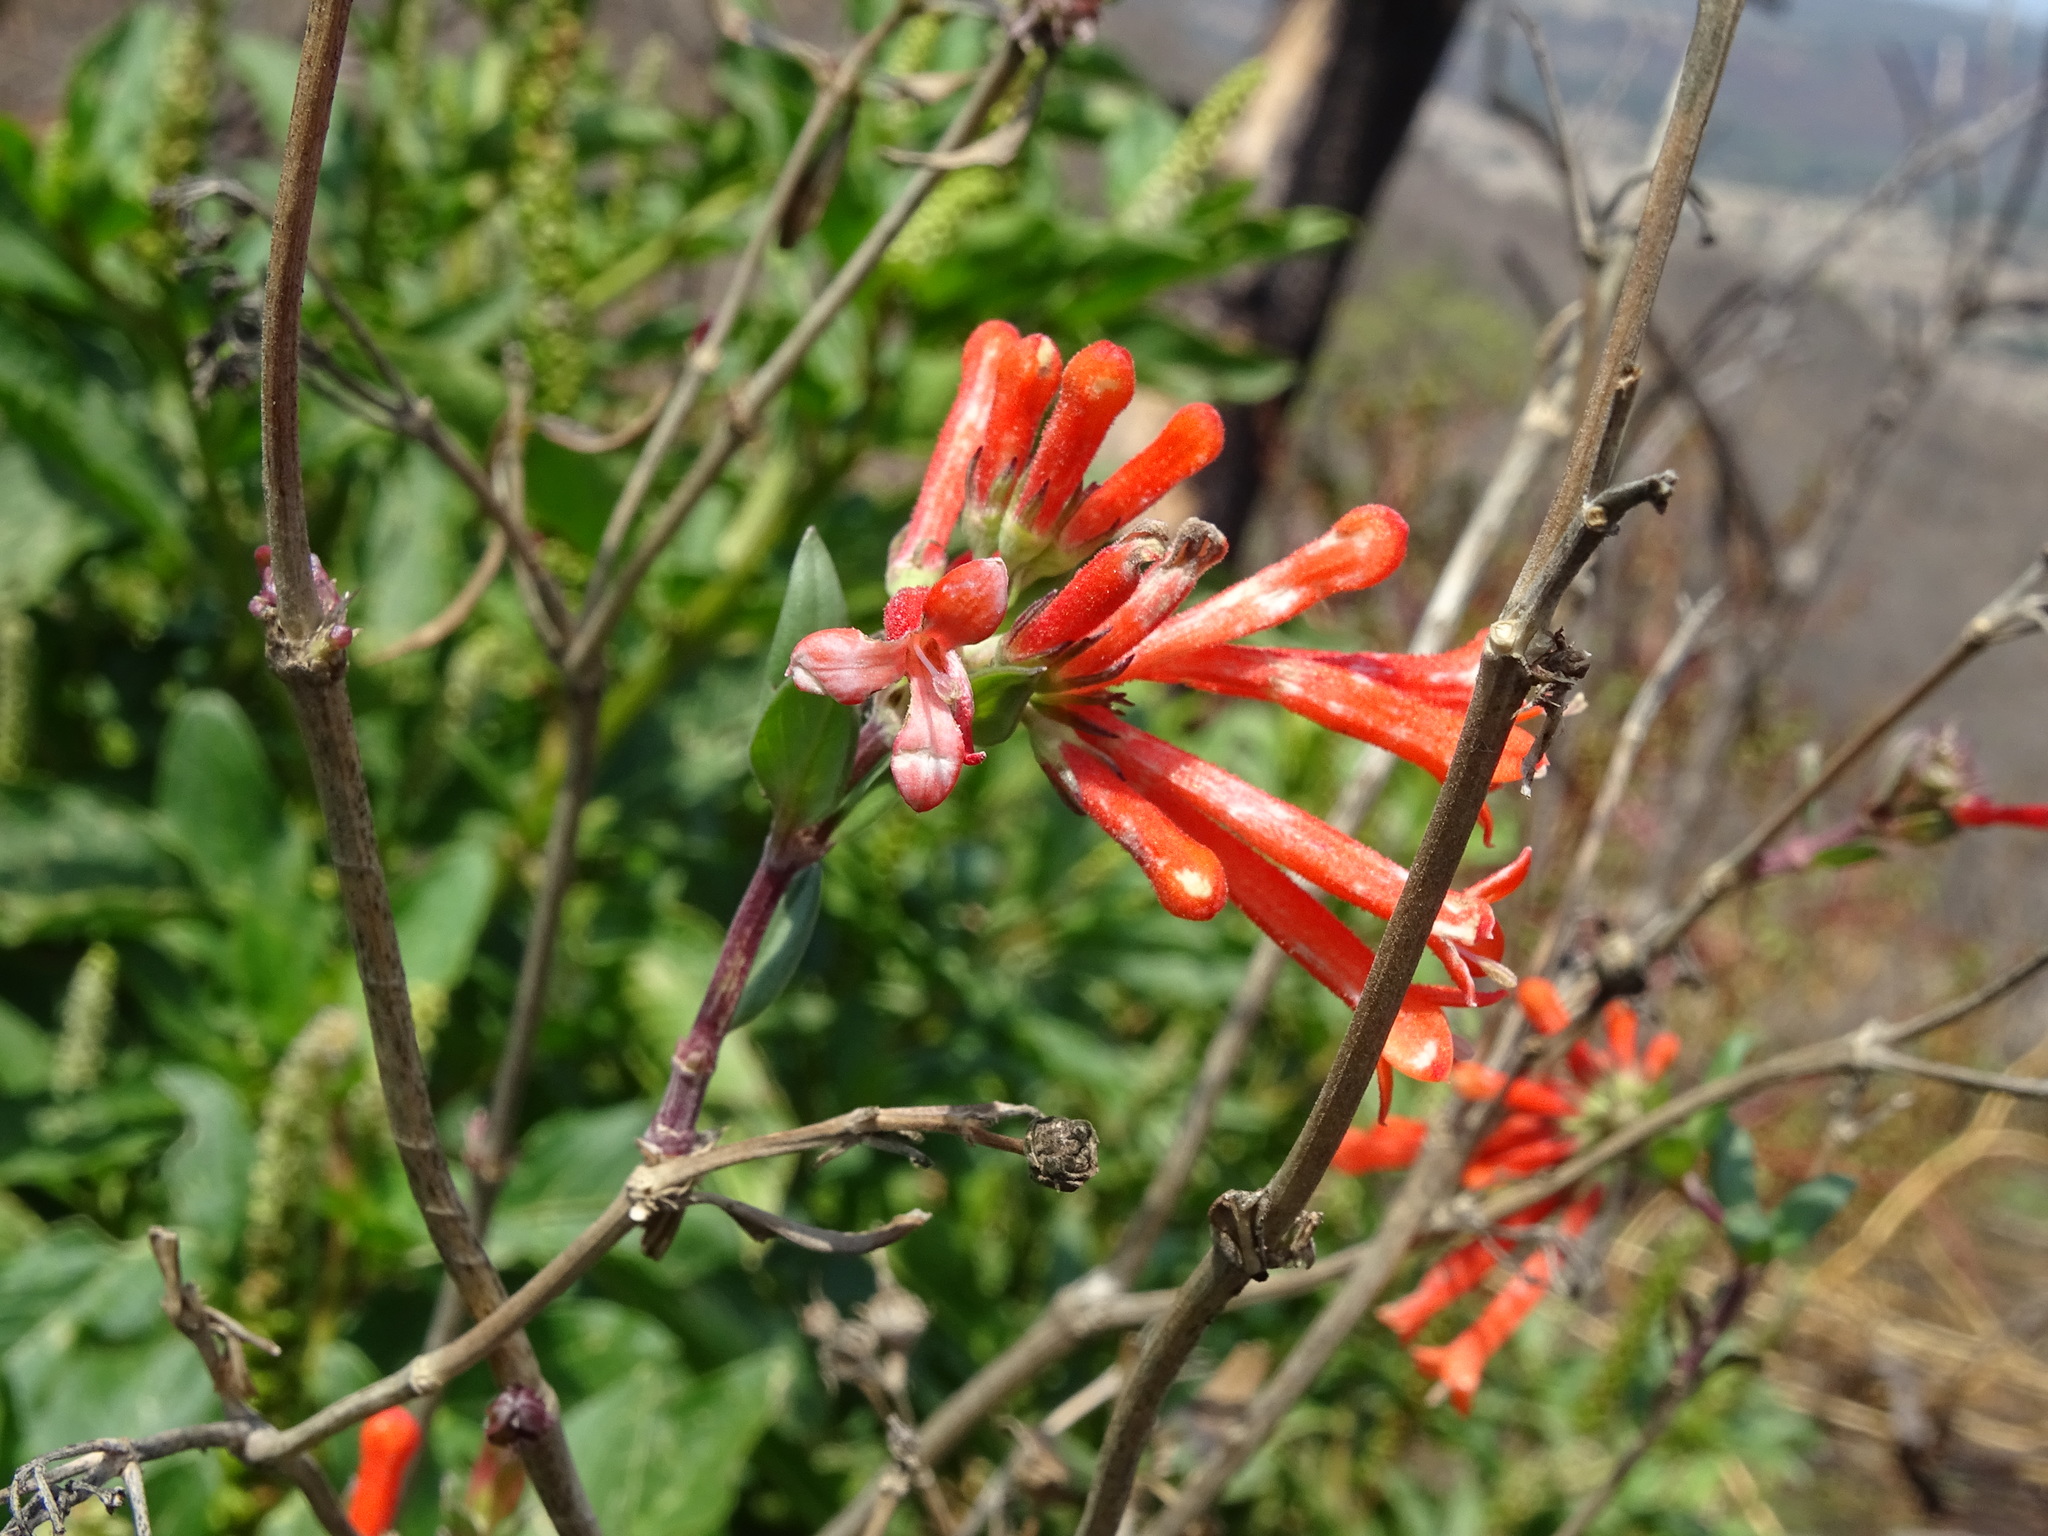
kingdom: Plantae
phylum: Tracheophyta
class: Magnoliopsida
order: Gentianales
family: Rubiaceae
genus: Bouvardia
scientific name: Bouvardia ternifolia
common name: Scarlet bouvardia
